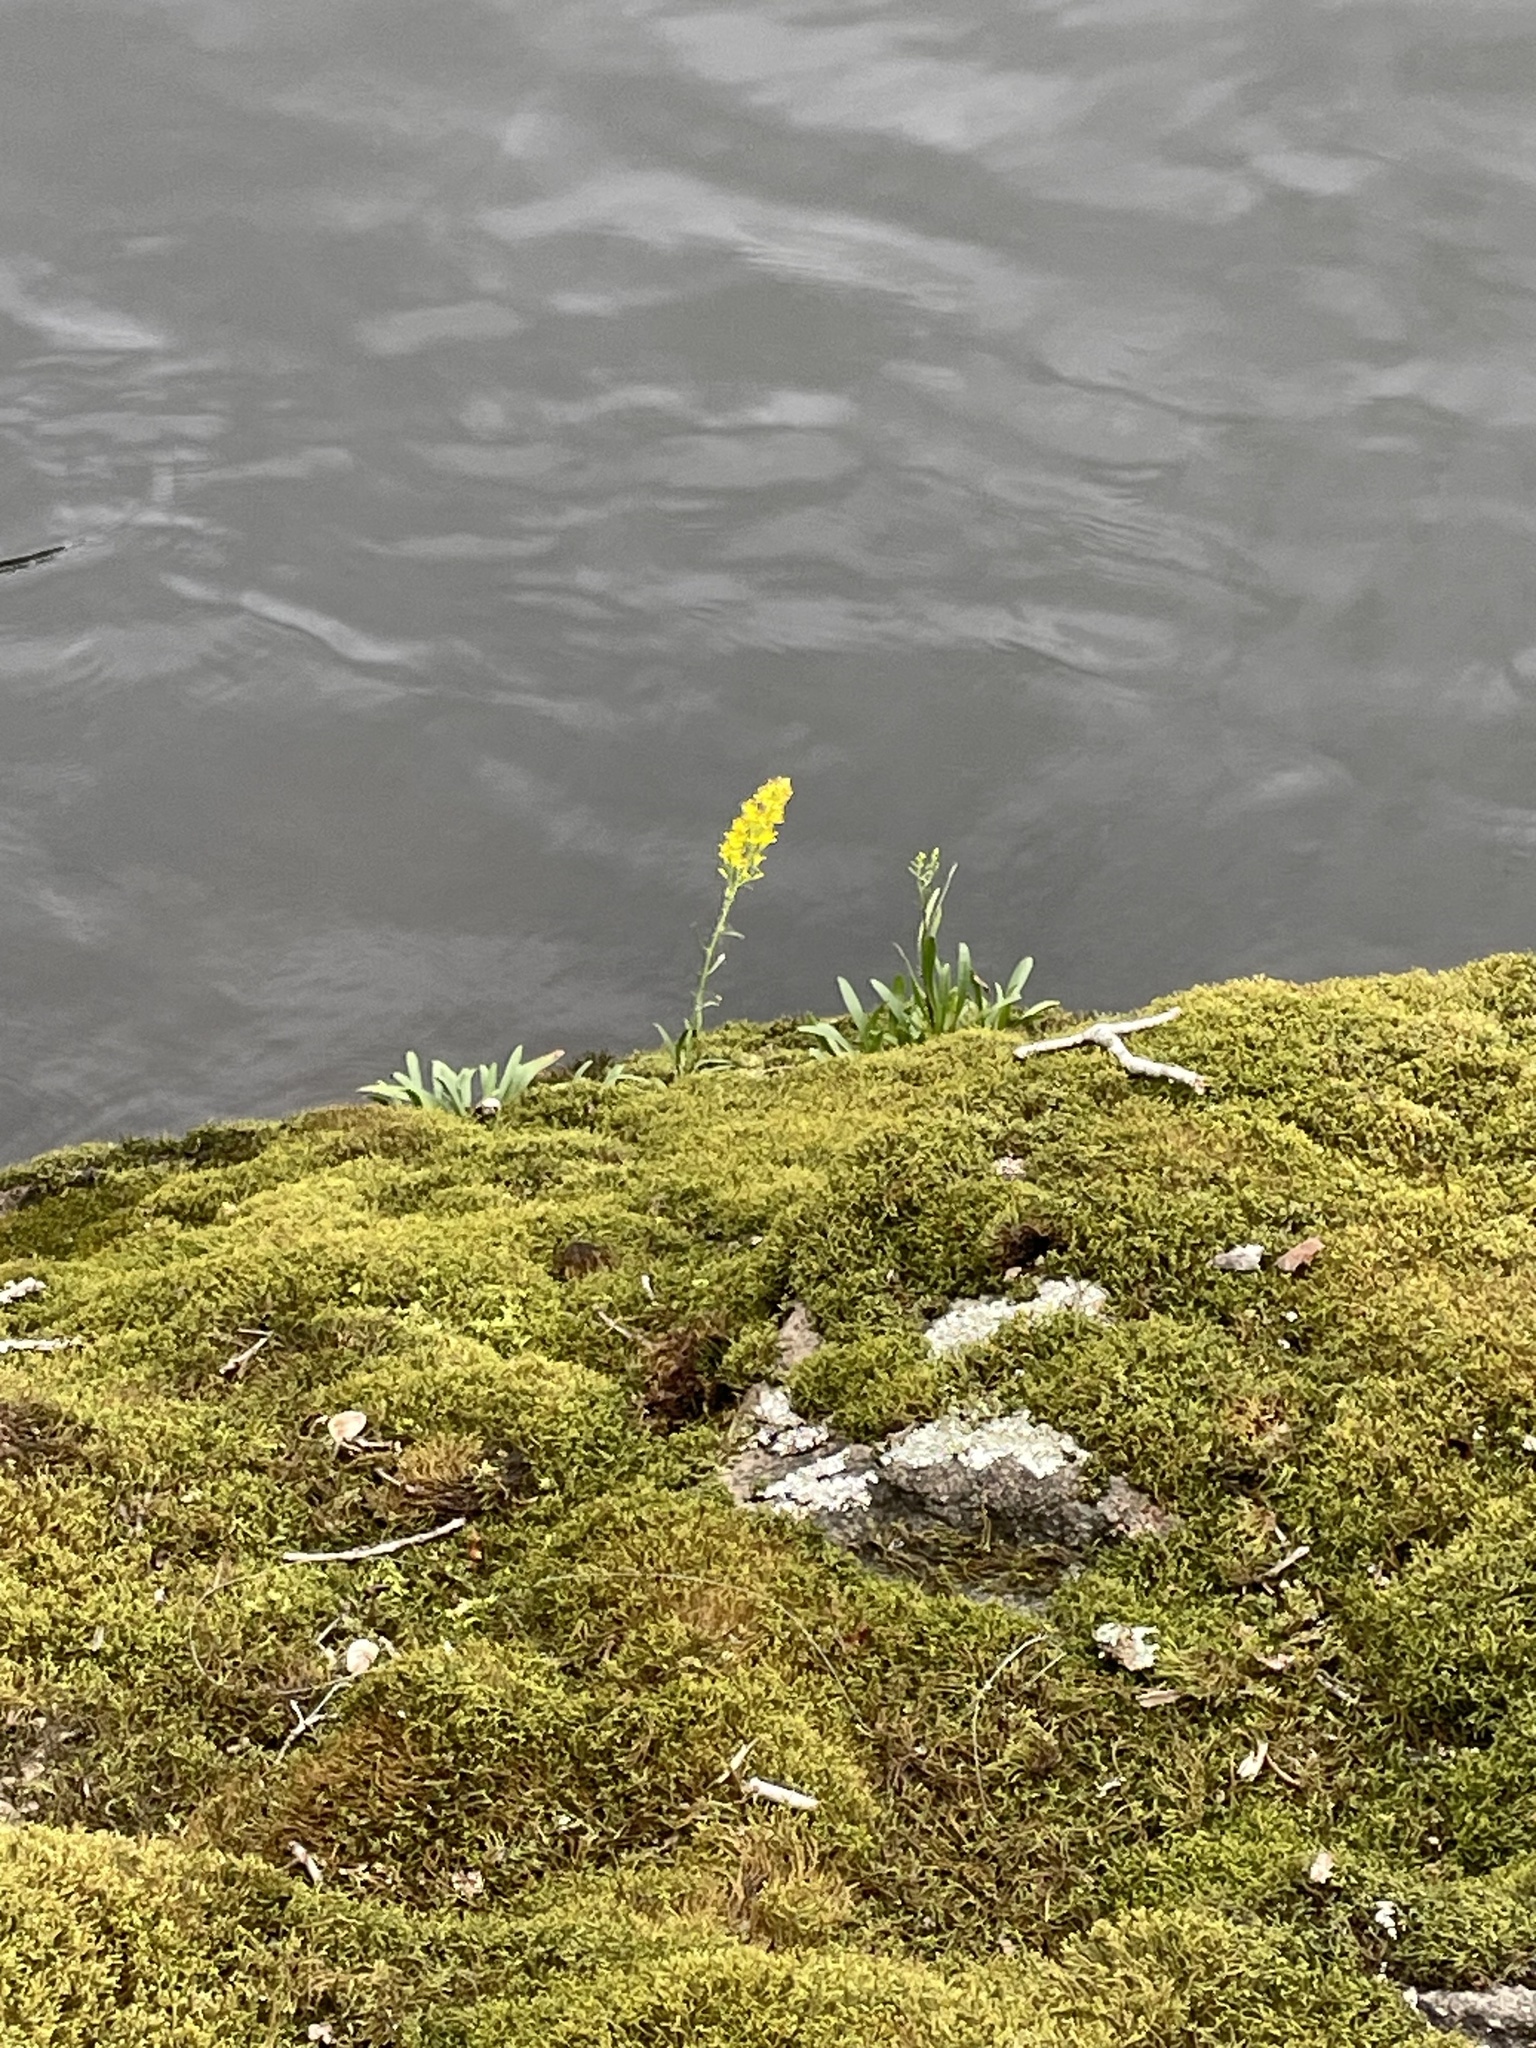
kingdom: Plantae
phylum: Tracheophyta
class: Magnoliopsida
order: Asterales
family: Asteraceae
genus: Solidago
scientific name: Solidago plumosa
